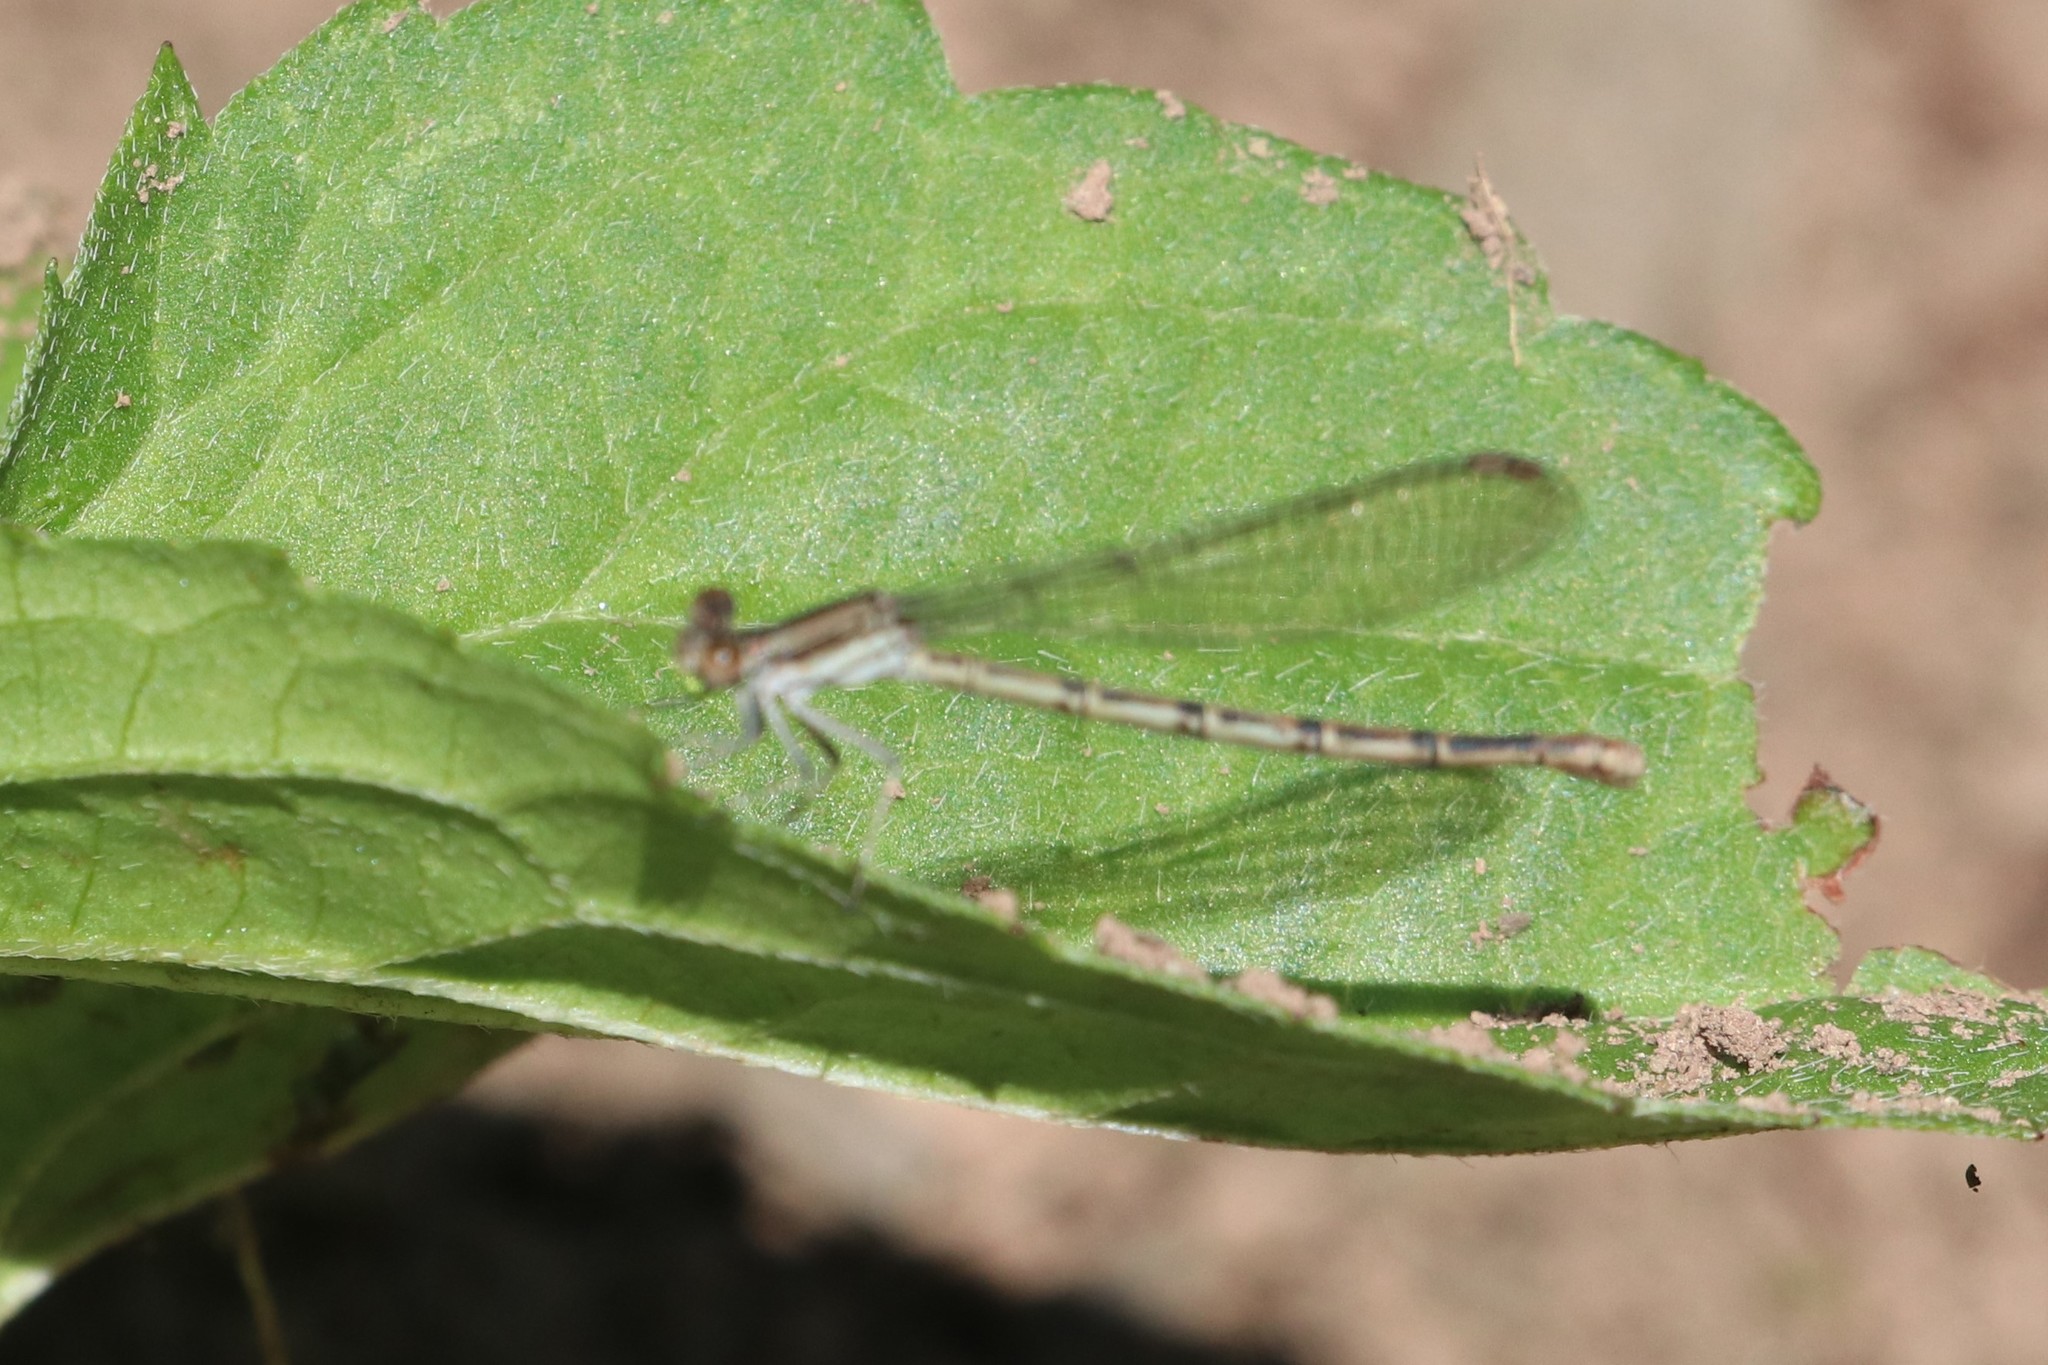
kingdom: Animalia
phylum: Arthropoda
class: Insecta
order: Odonata
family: Coenagrionidae
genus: Argia
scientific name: Argia fumipennis
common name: Variable dancer
